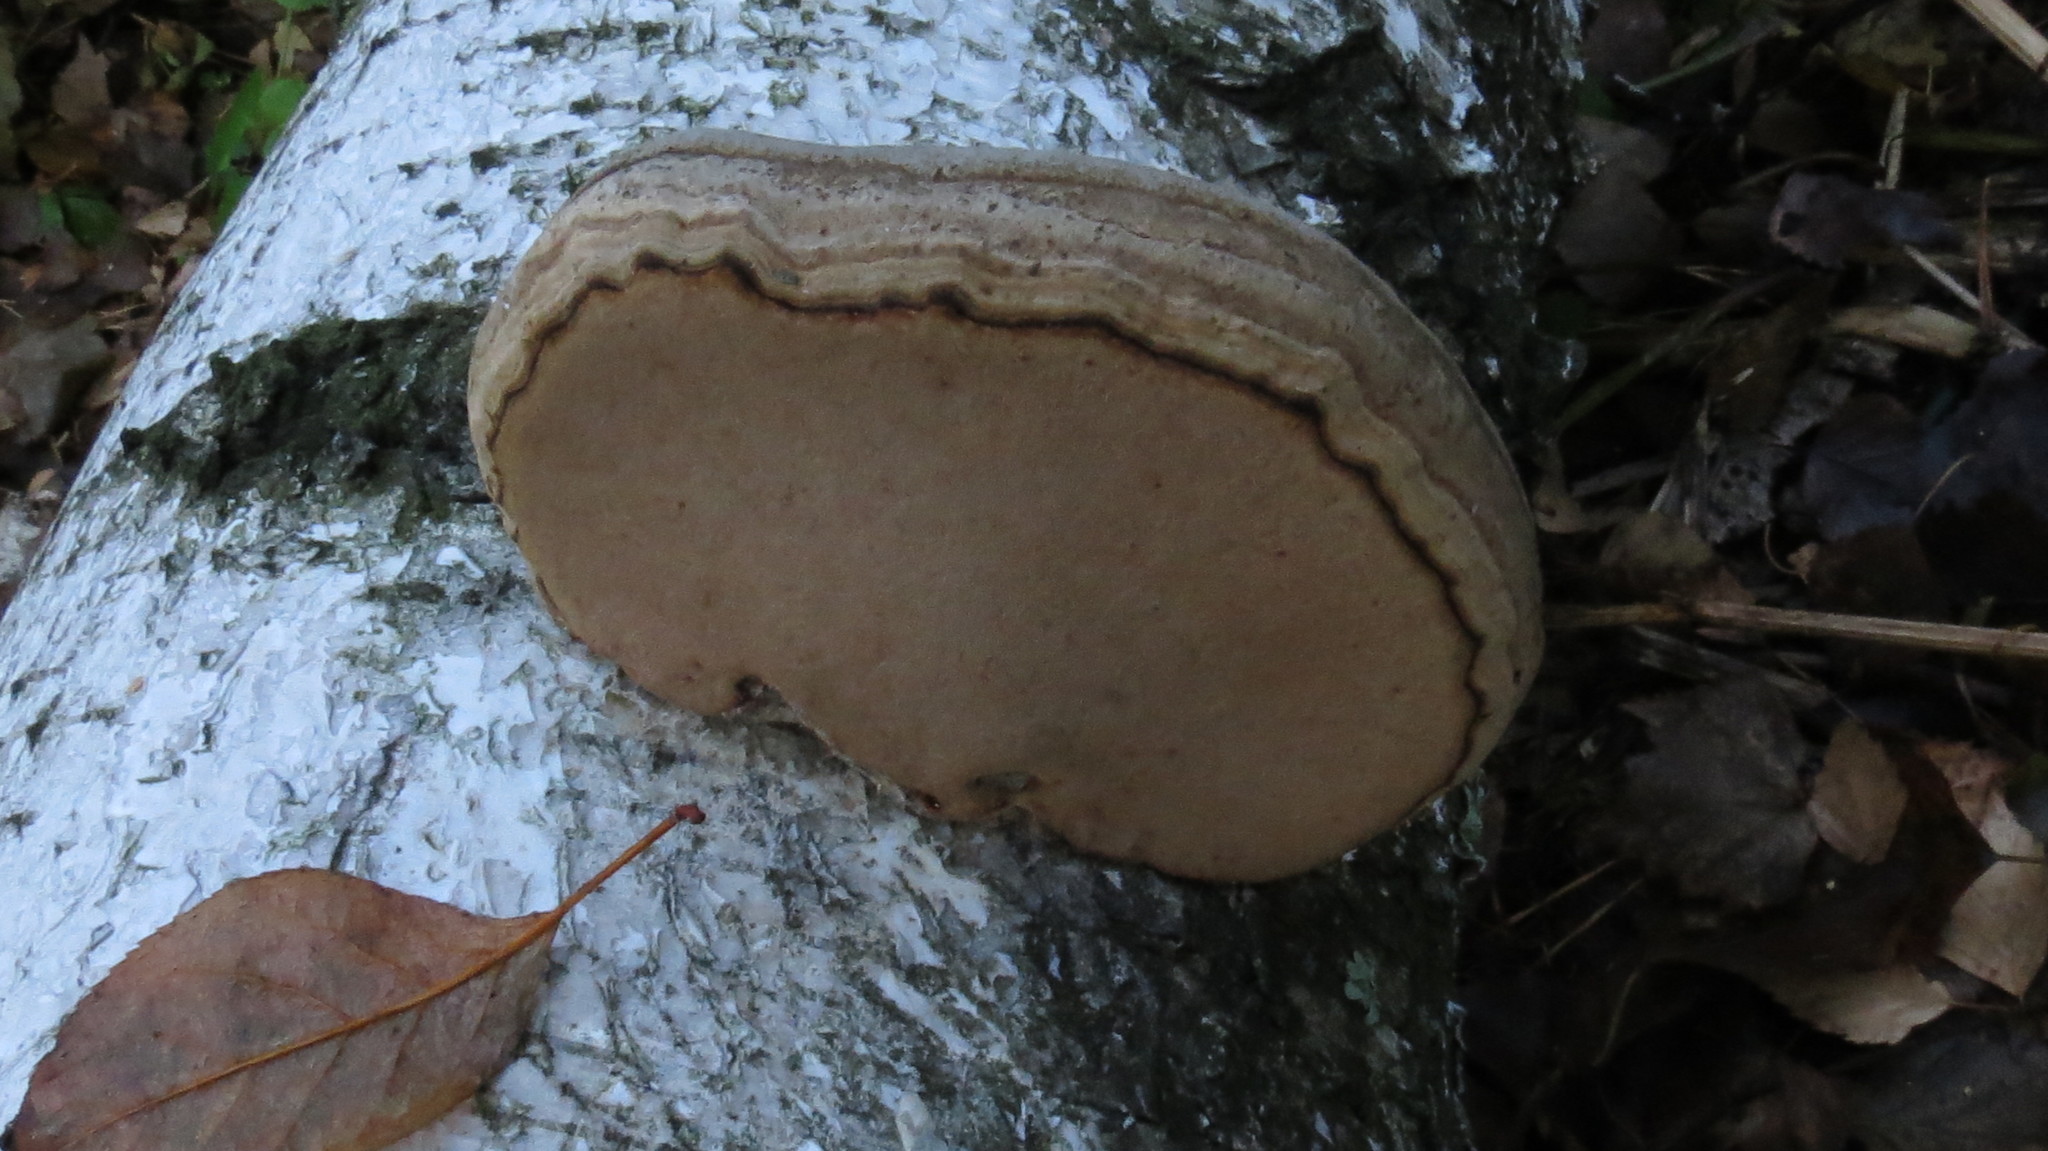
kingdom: Fungi
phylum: Basidiomycota
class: Agaricomycetes
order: Polyporales
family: Polyporaceae
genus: Fomes
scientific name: Fomes fomentarius
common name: Hoof fungus
